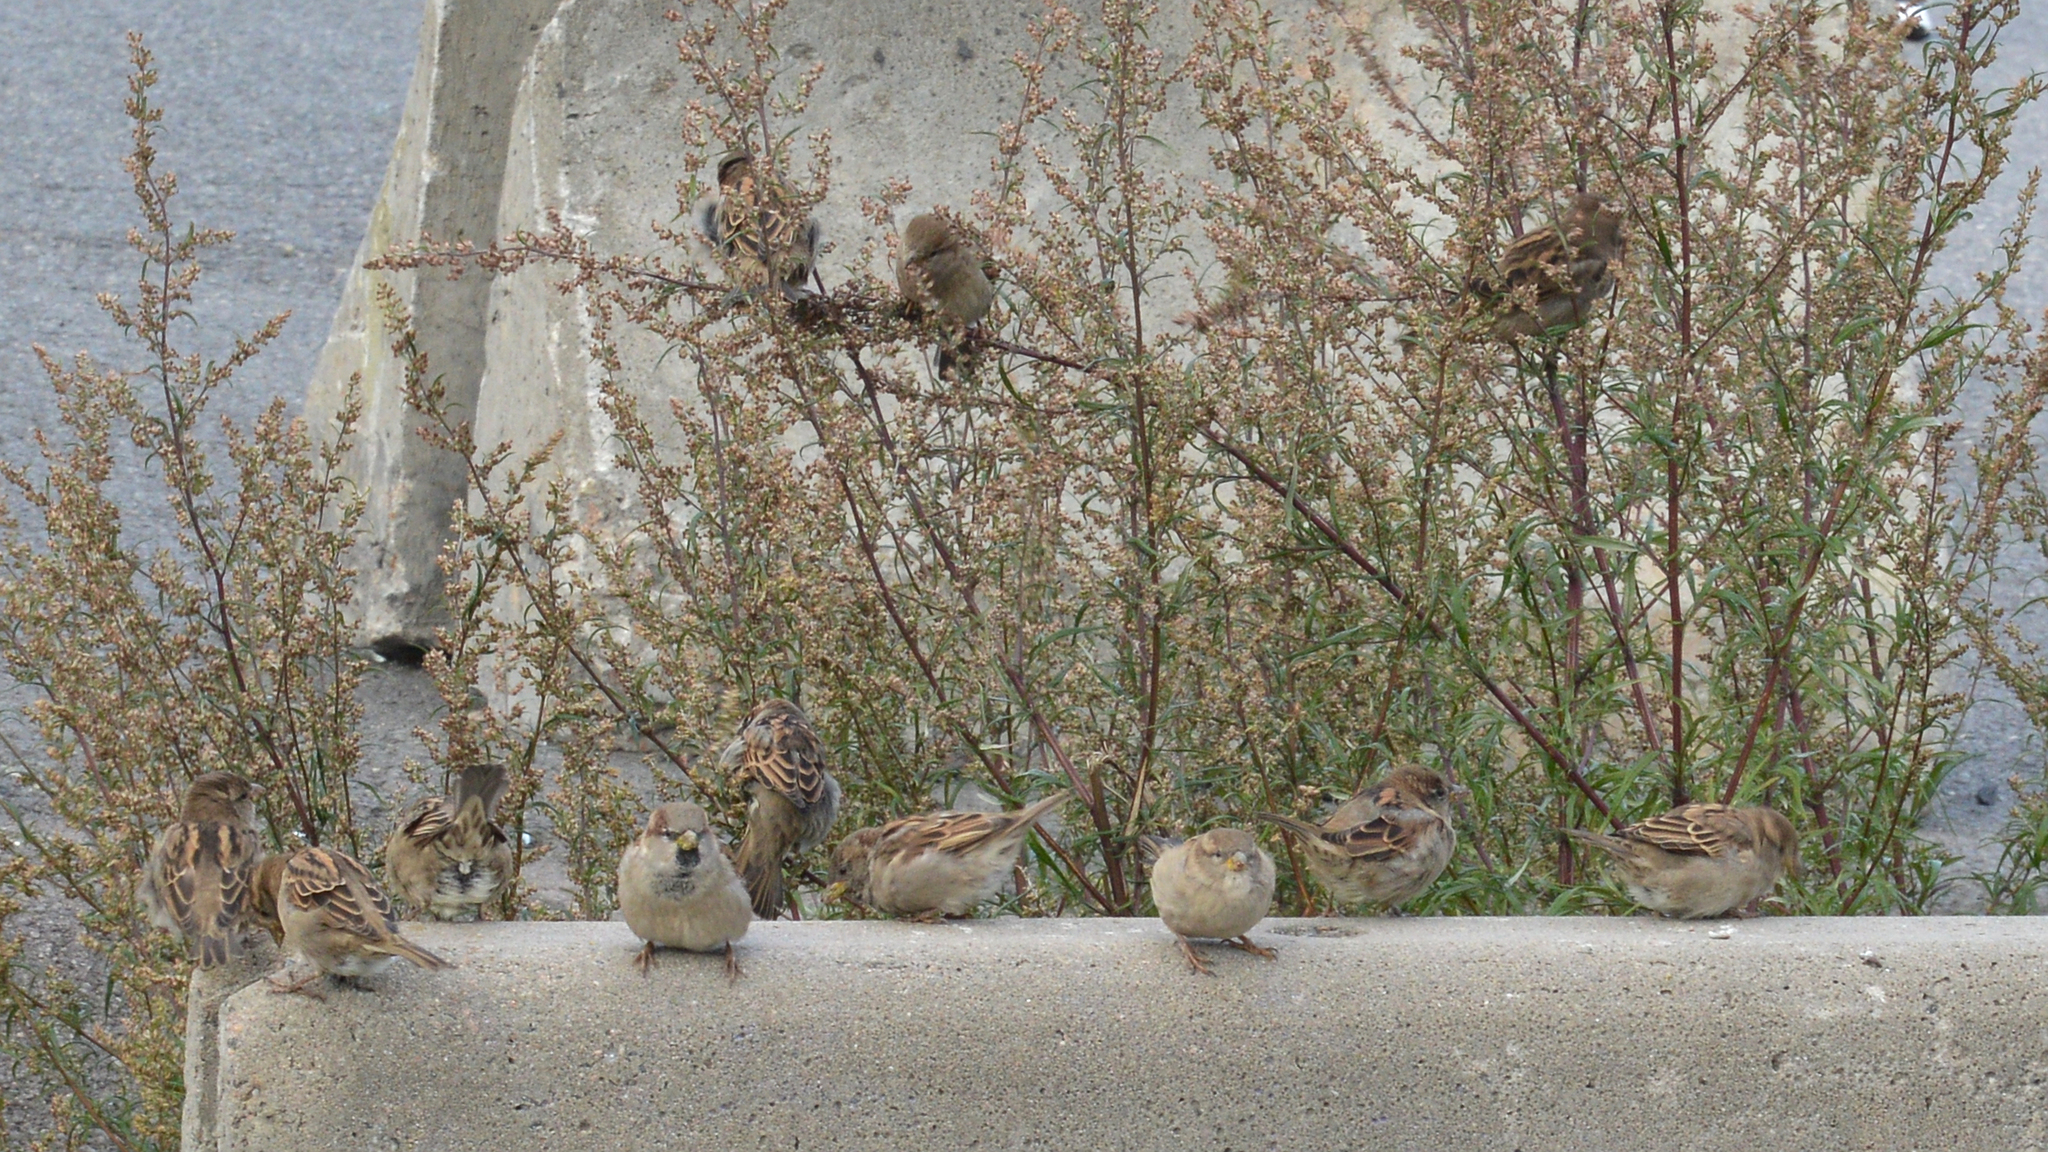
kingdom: Animalia
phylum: Chordata
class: Aves
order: Passeriformes
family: Passeridae
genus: Passer
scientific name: Passer domesticus
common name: House sparrow
